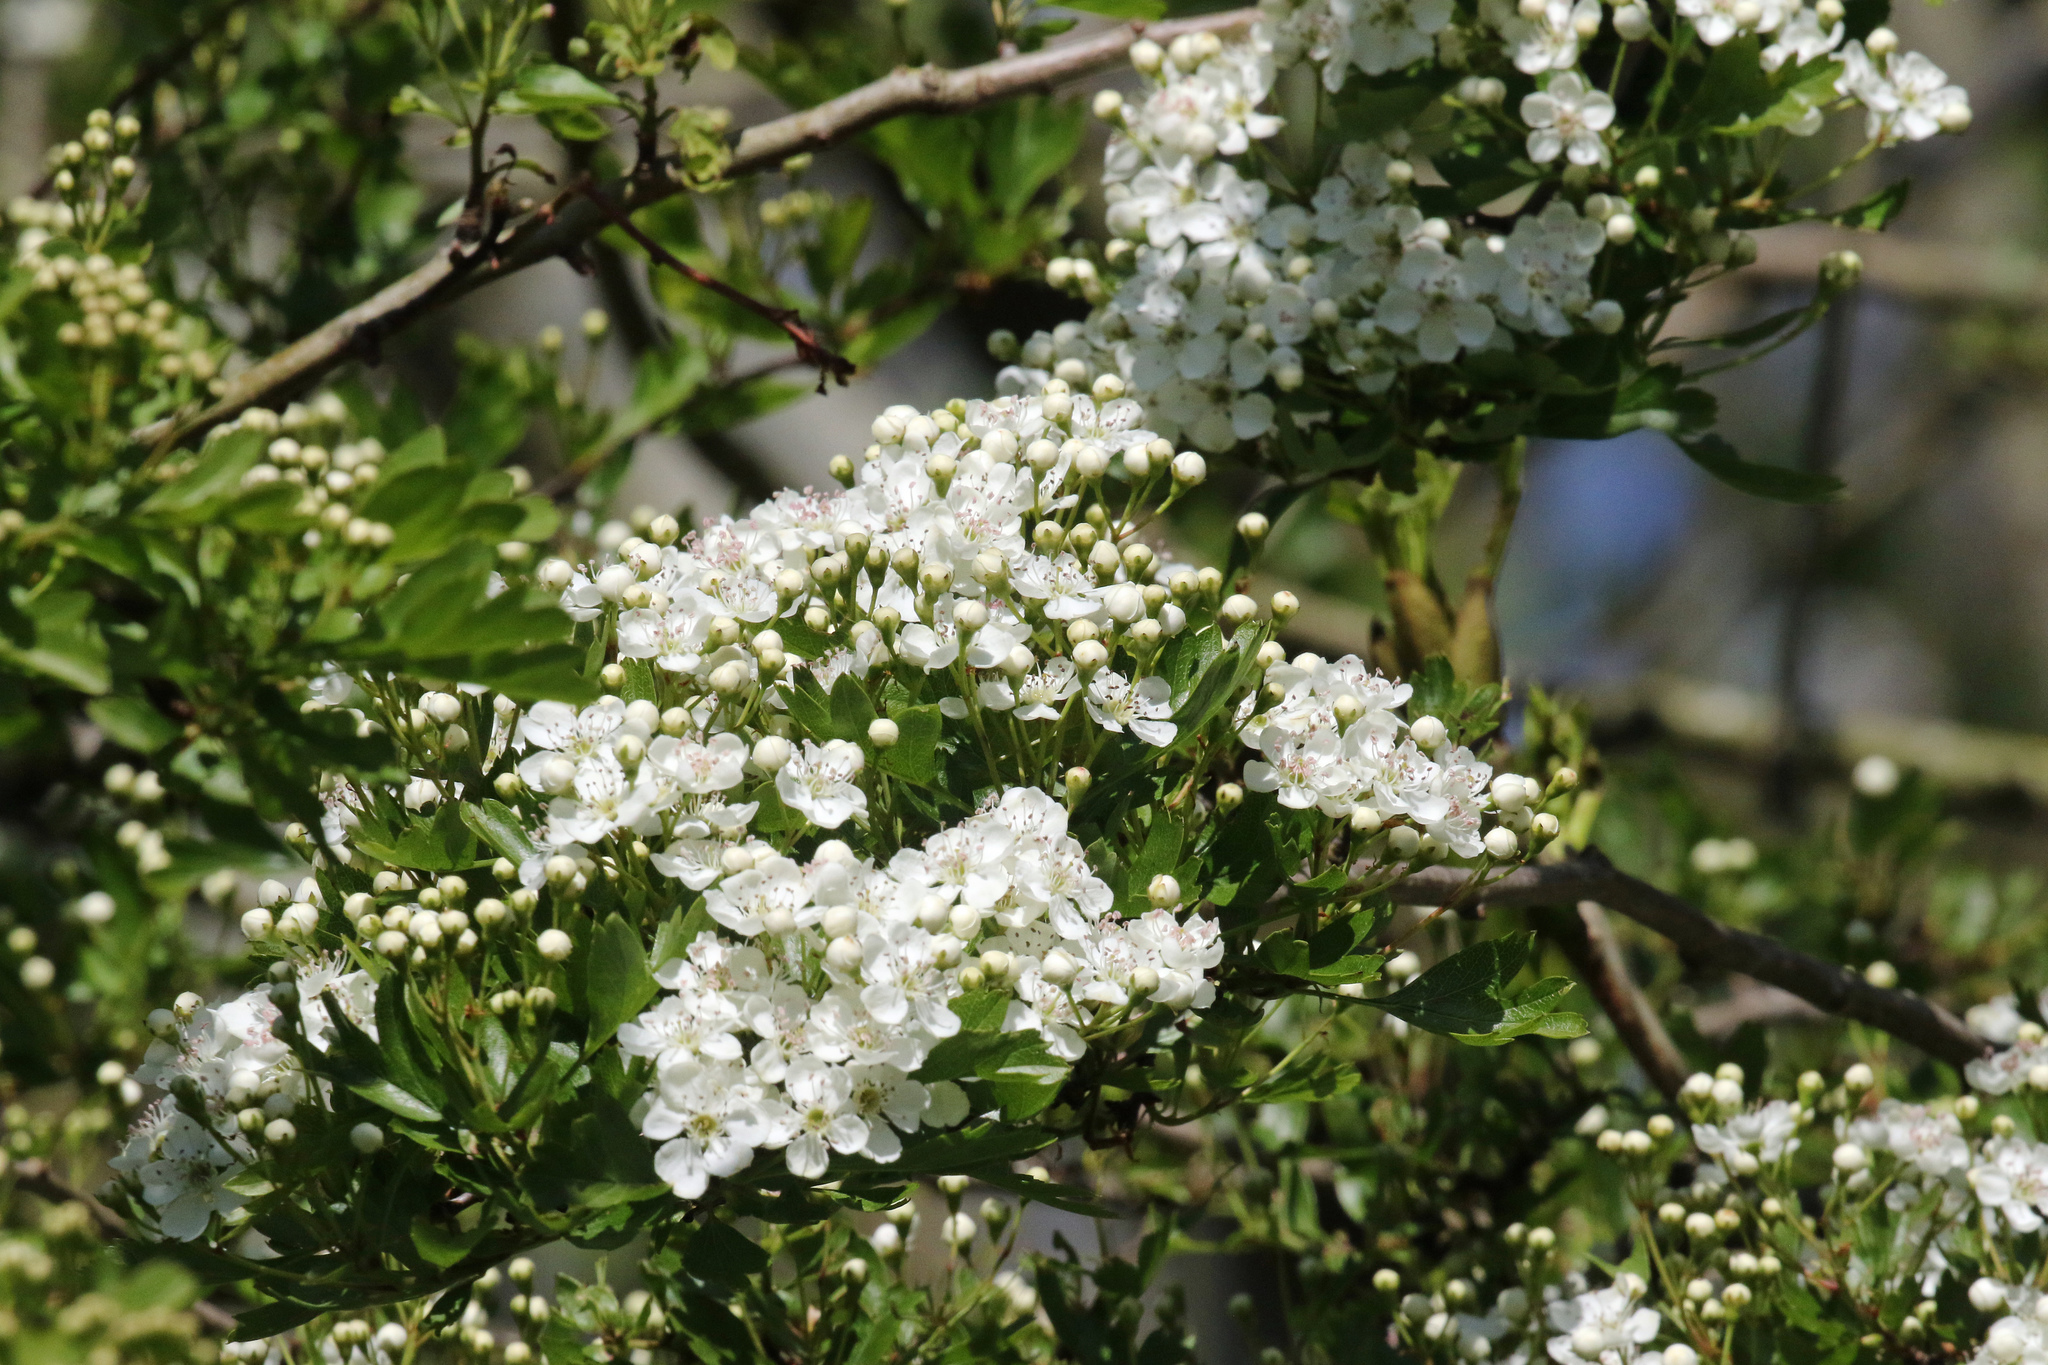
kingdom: Plantae
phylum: Tracheophyta
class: Magnoliopsida
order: Rosales
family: Rosaceae
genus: Crataegus
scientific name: Crataegus monogyna
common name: Hawthorn
